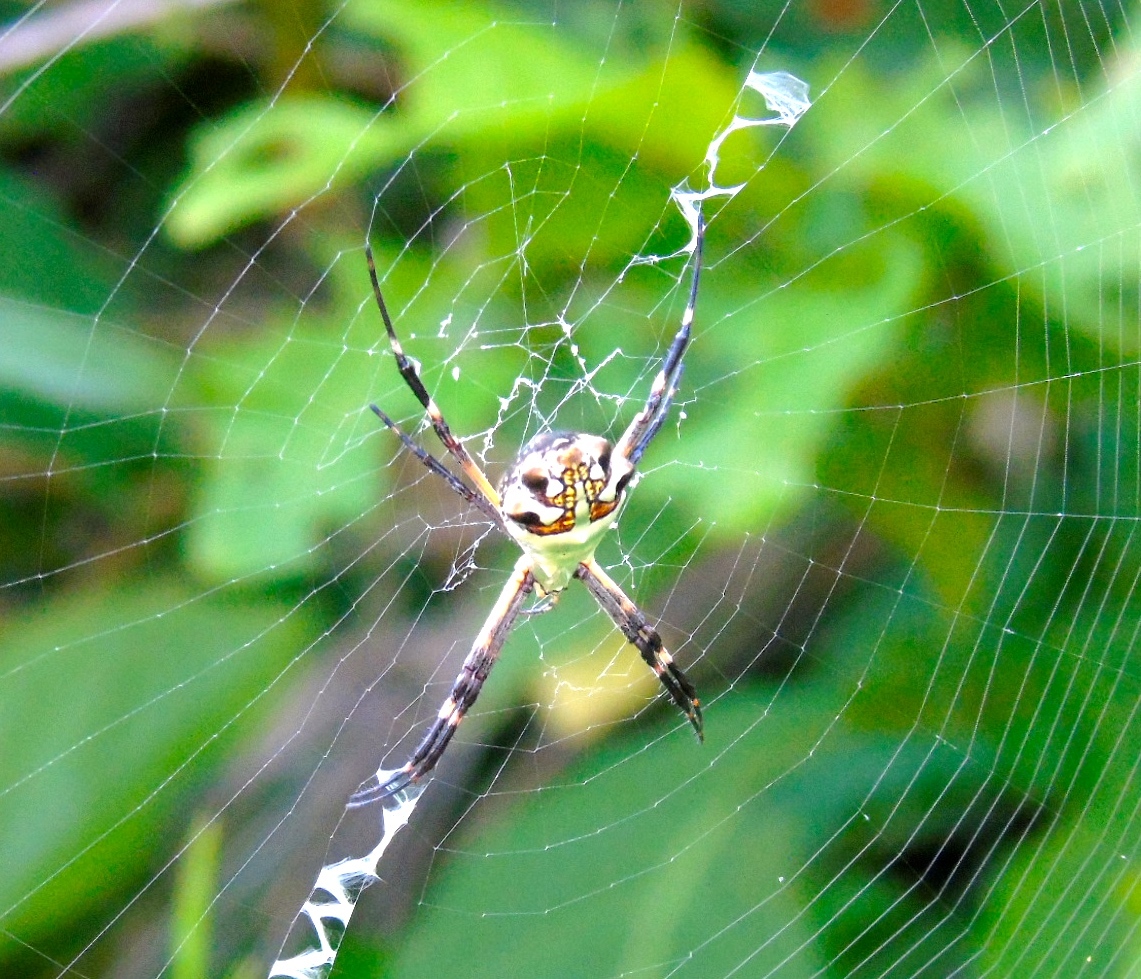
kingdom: Animalia
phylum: Arthropoda
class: Arachnida
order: Araneae
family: Araneidae
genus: Argiope
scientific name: Argiope argentata
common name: Orb weavers
